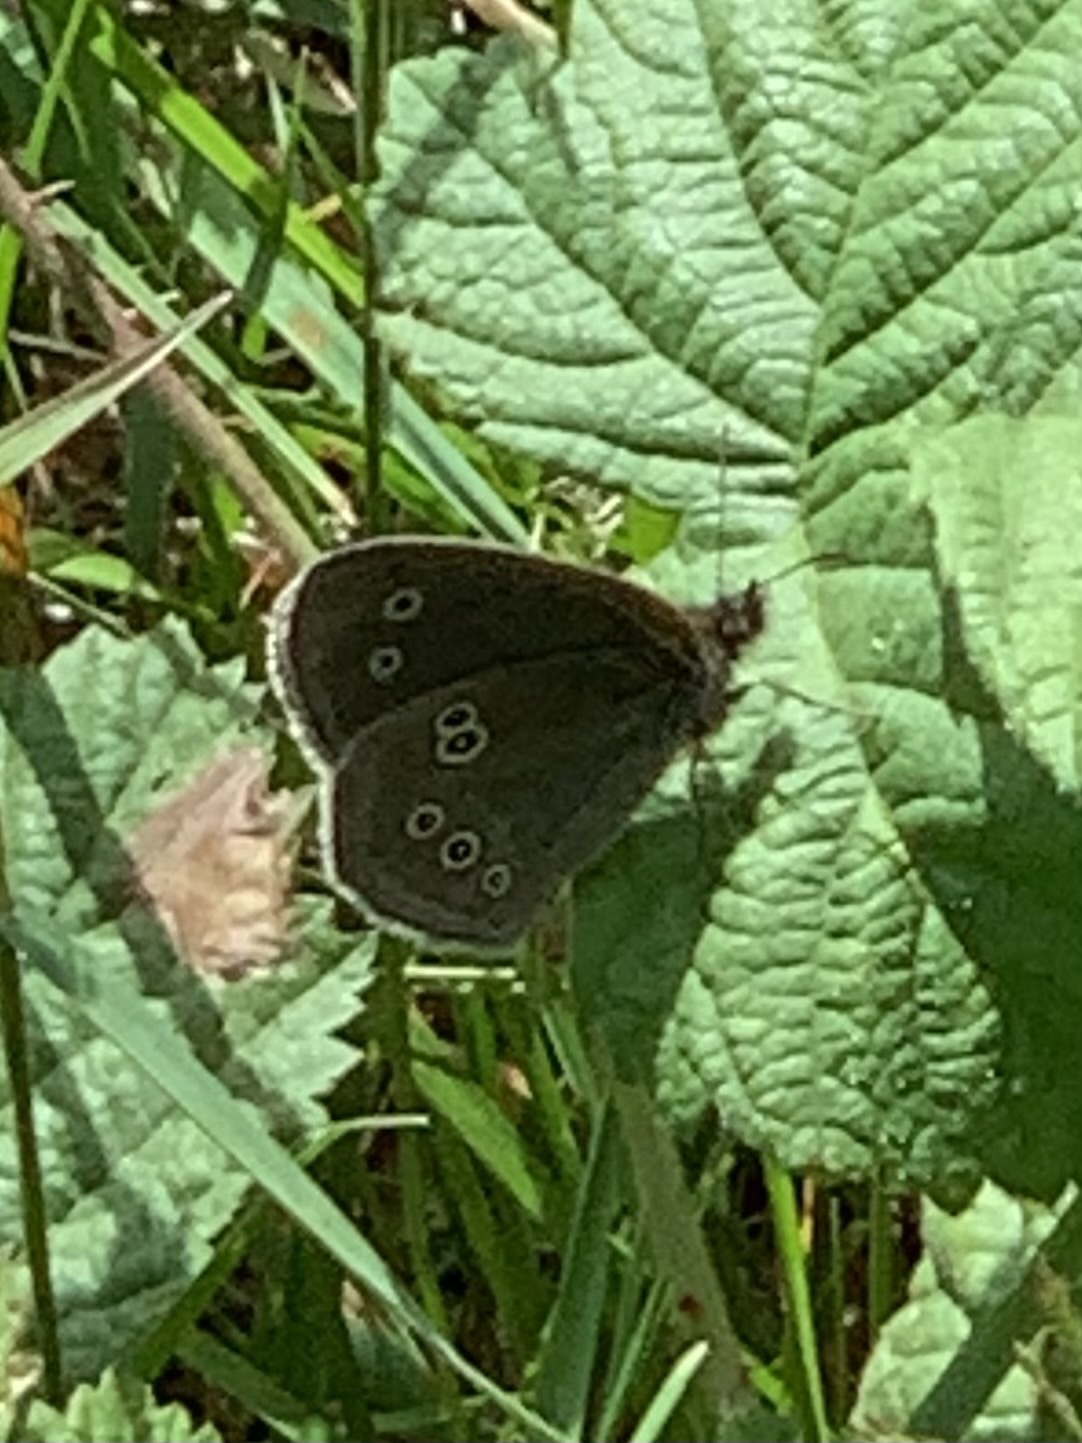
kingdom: Animalia
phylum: Arthropoda
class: Insecta
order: Lepidoptera
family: Nymphalidae
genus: Aphantopus
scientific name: Aphantopus hyperantus
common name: Ringlet
